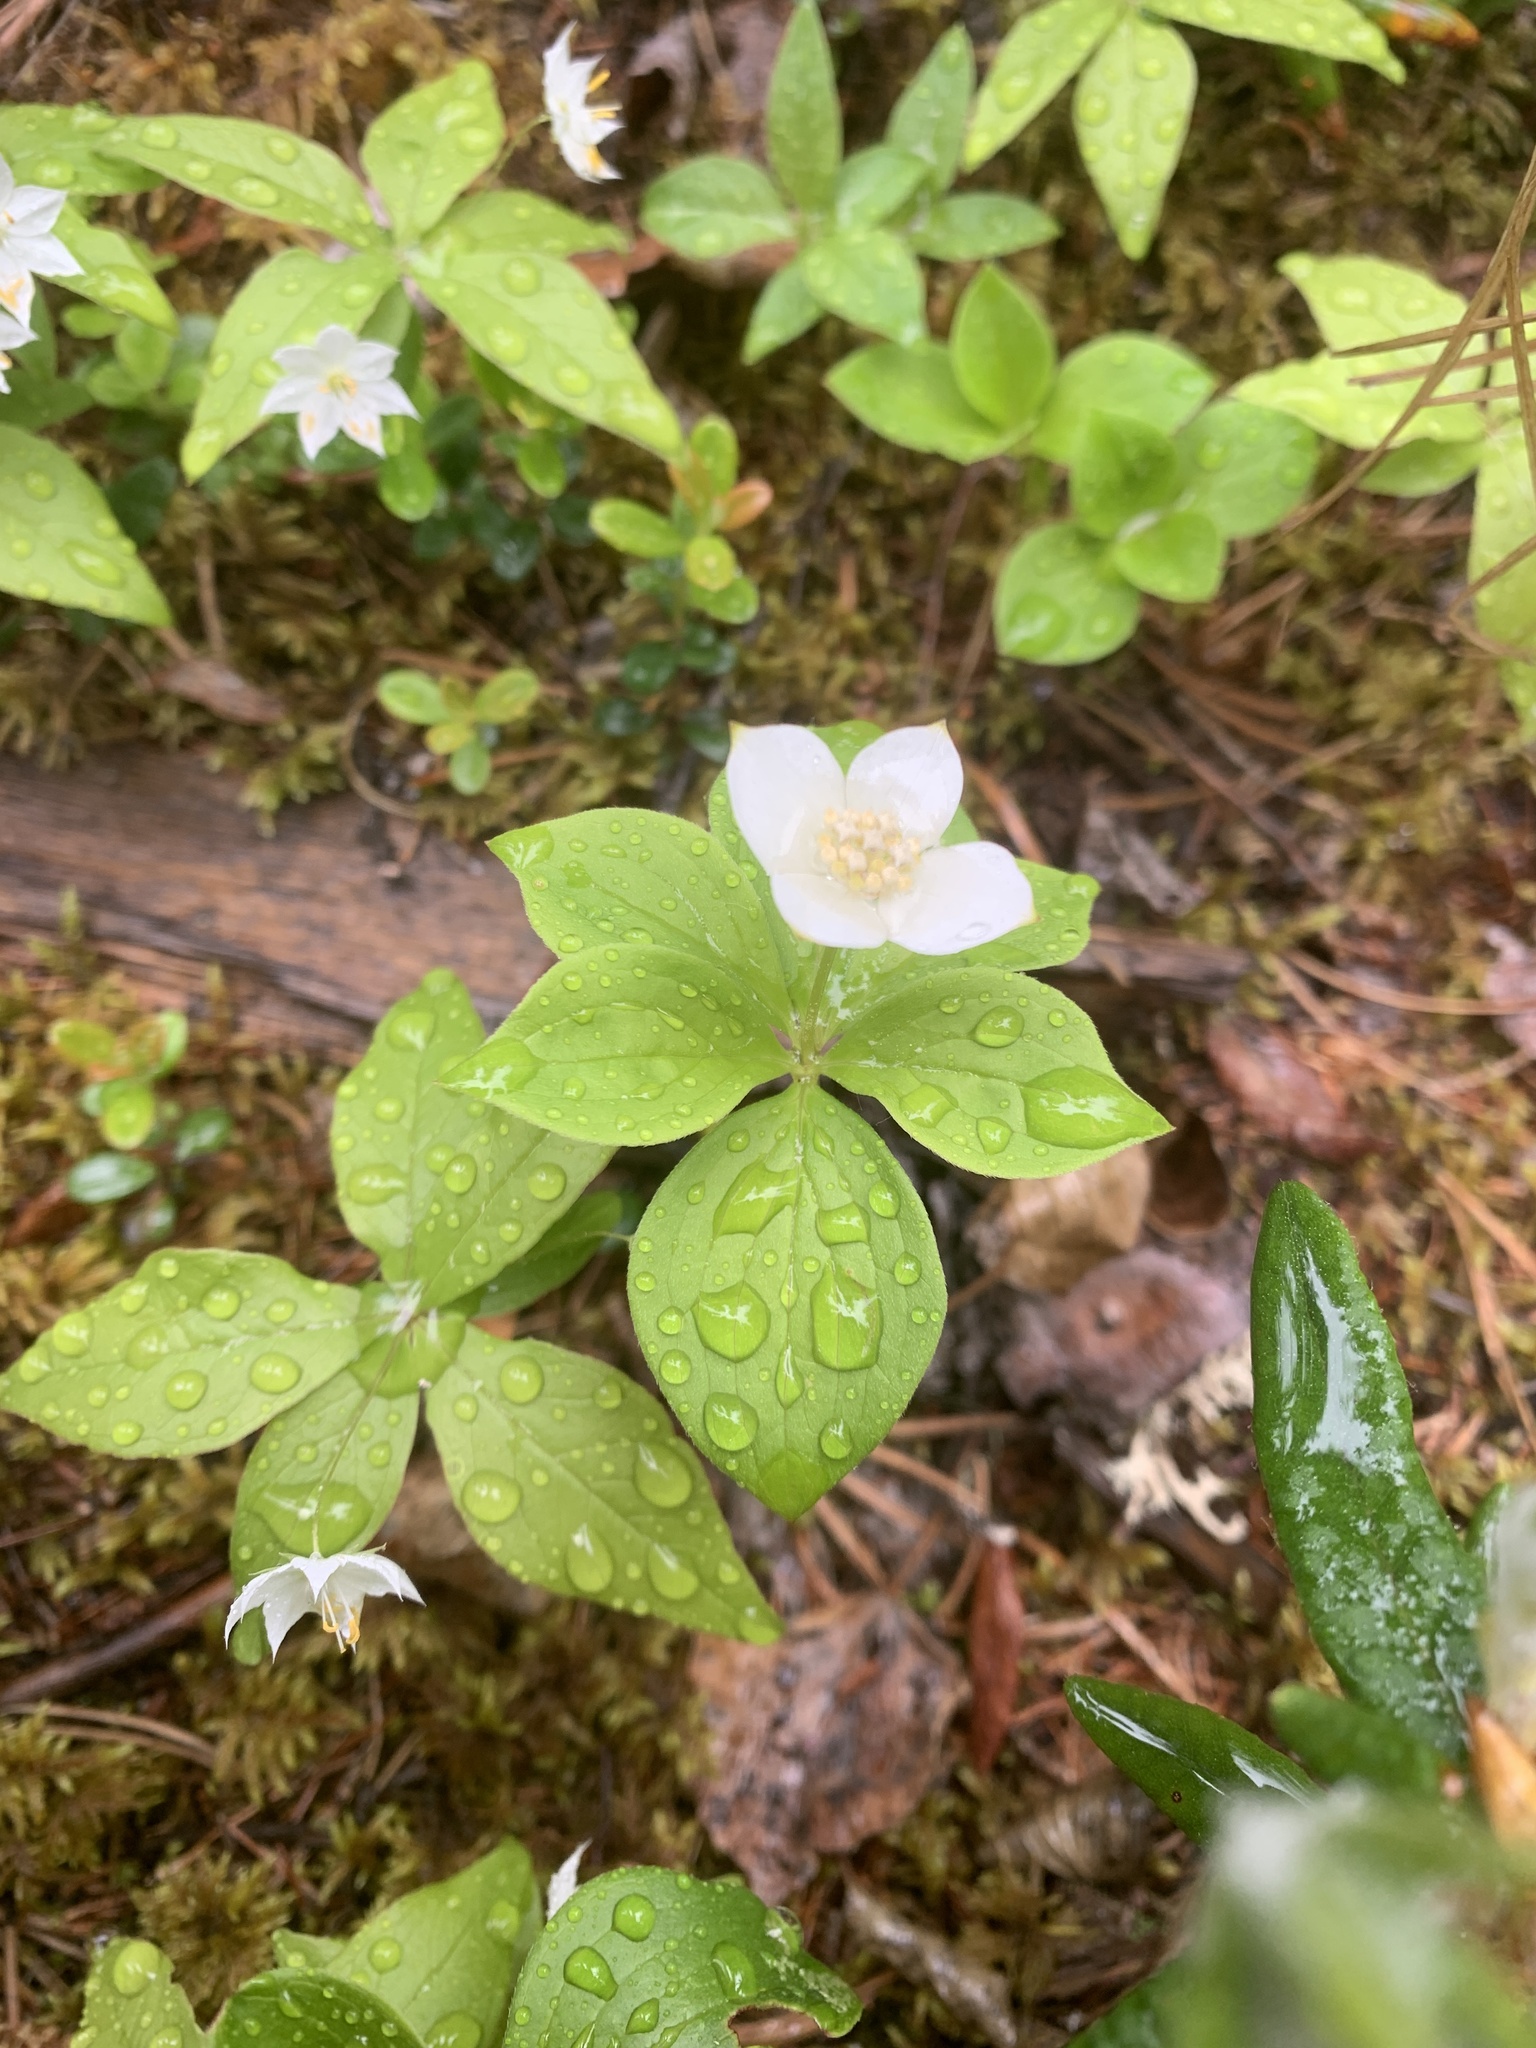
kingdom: Plantae
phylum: Tracheophyta
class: Magnoliopsida
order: Cornales
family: Cornaceae
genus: Cornus
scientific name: Cornus canadensis
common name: Creeping dogwood
